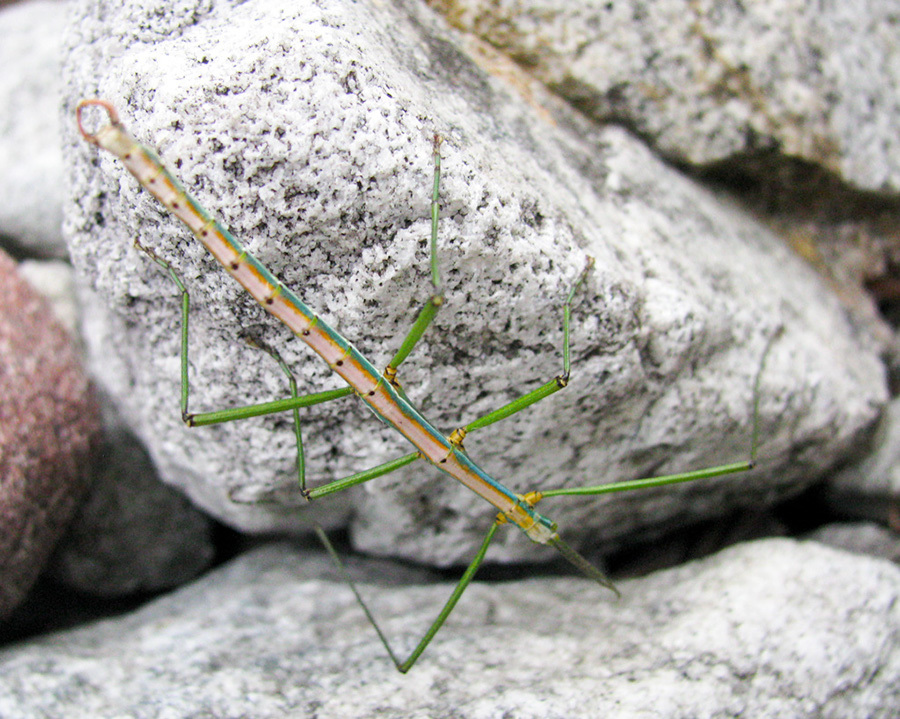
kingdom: Animalia
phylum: Arthropoda
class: Insecta
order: Phasmida
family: Bacillidae
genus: Macynia
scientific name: Macynia labiata
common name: Thunberg's stick insect
